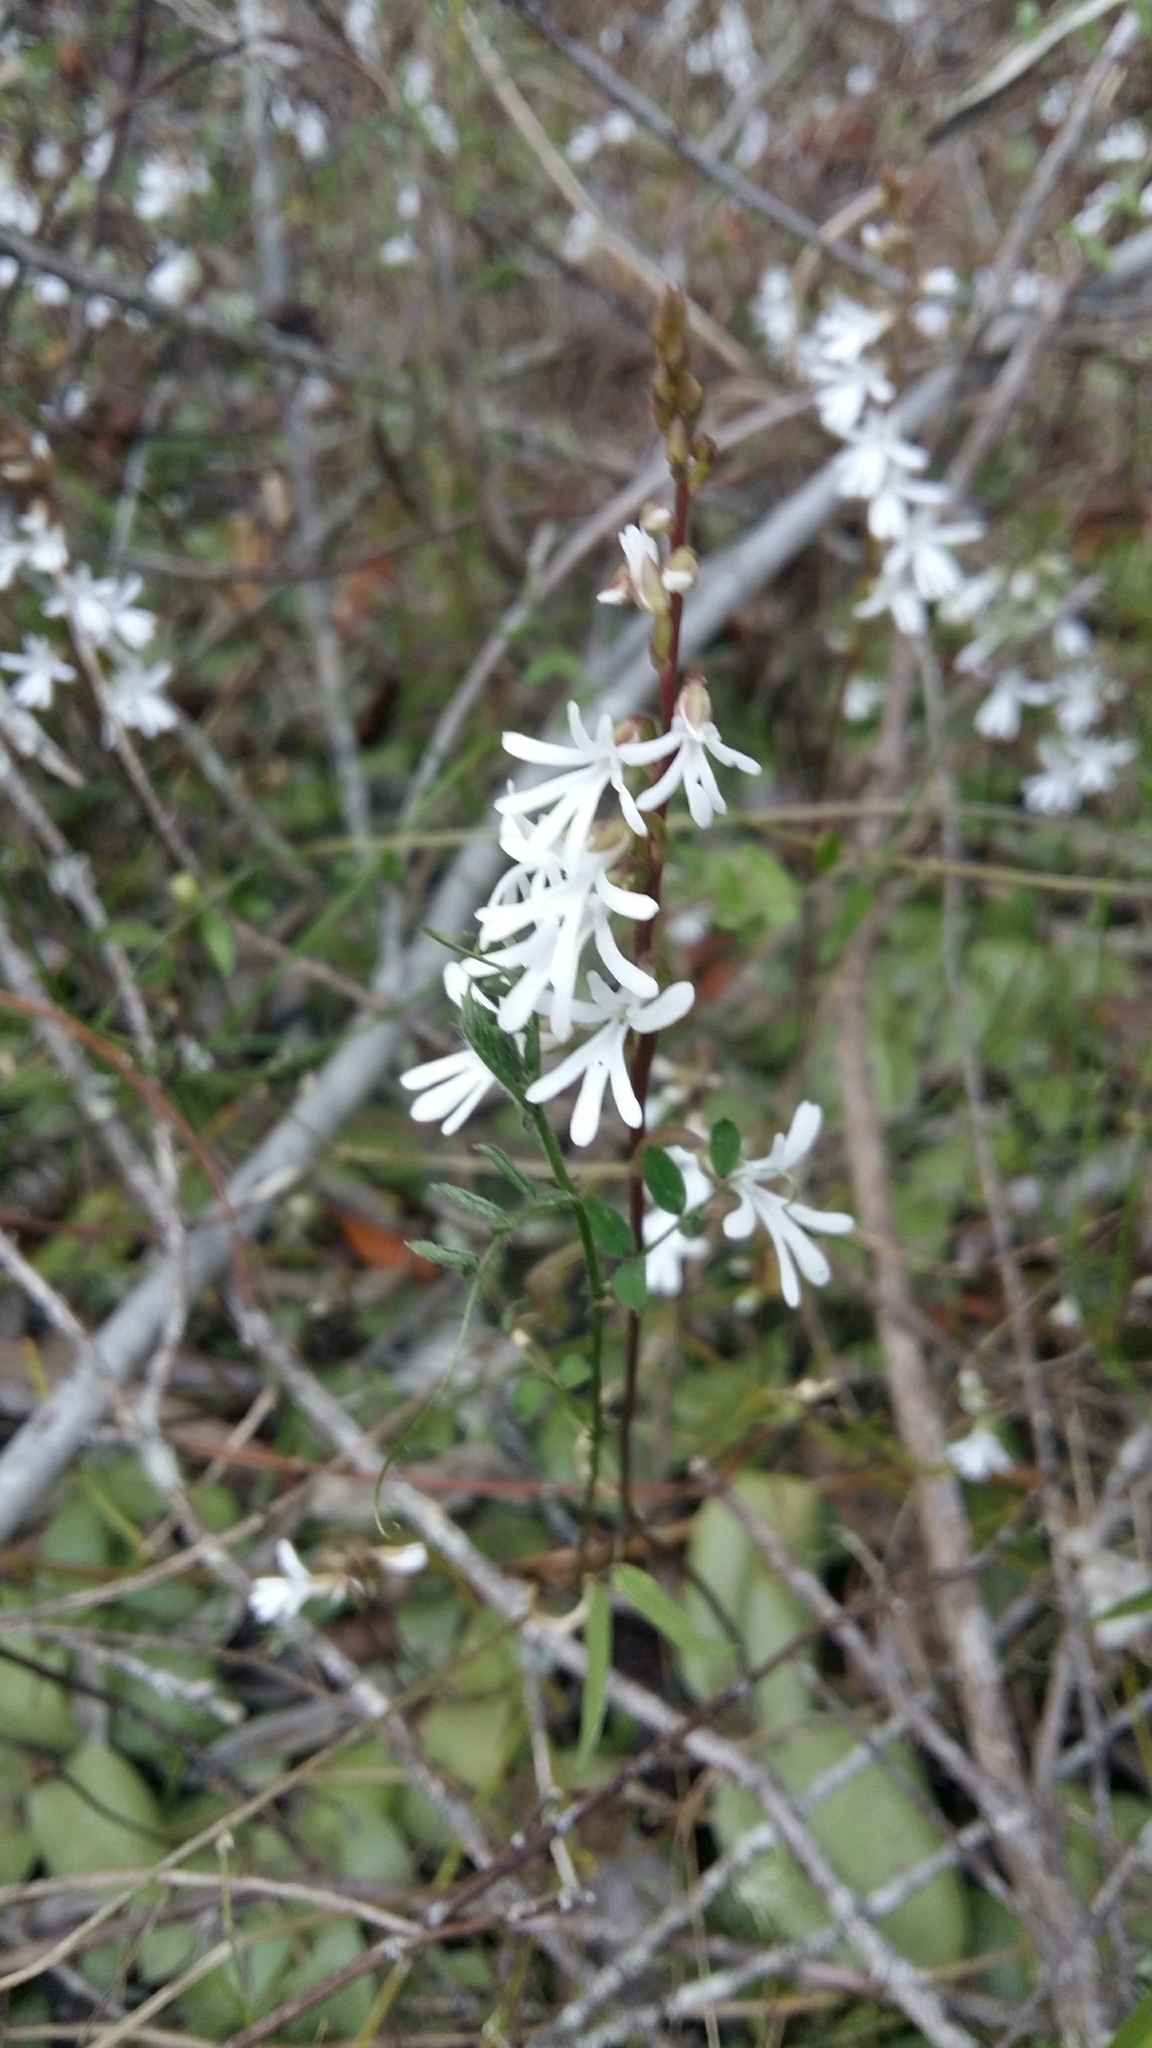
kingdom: Plantae
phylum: Tracheophyta
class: Liliopsida
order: Asparagales
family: Orchidaceae
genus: Holothrix
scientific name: Holothrix parviflora
